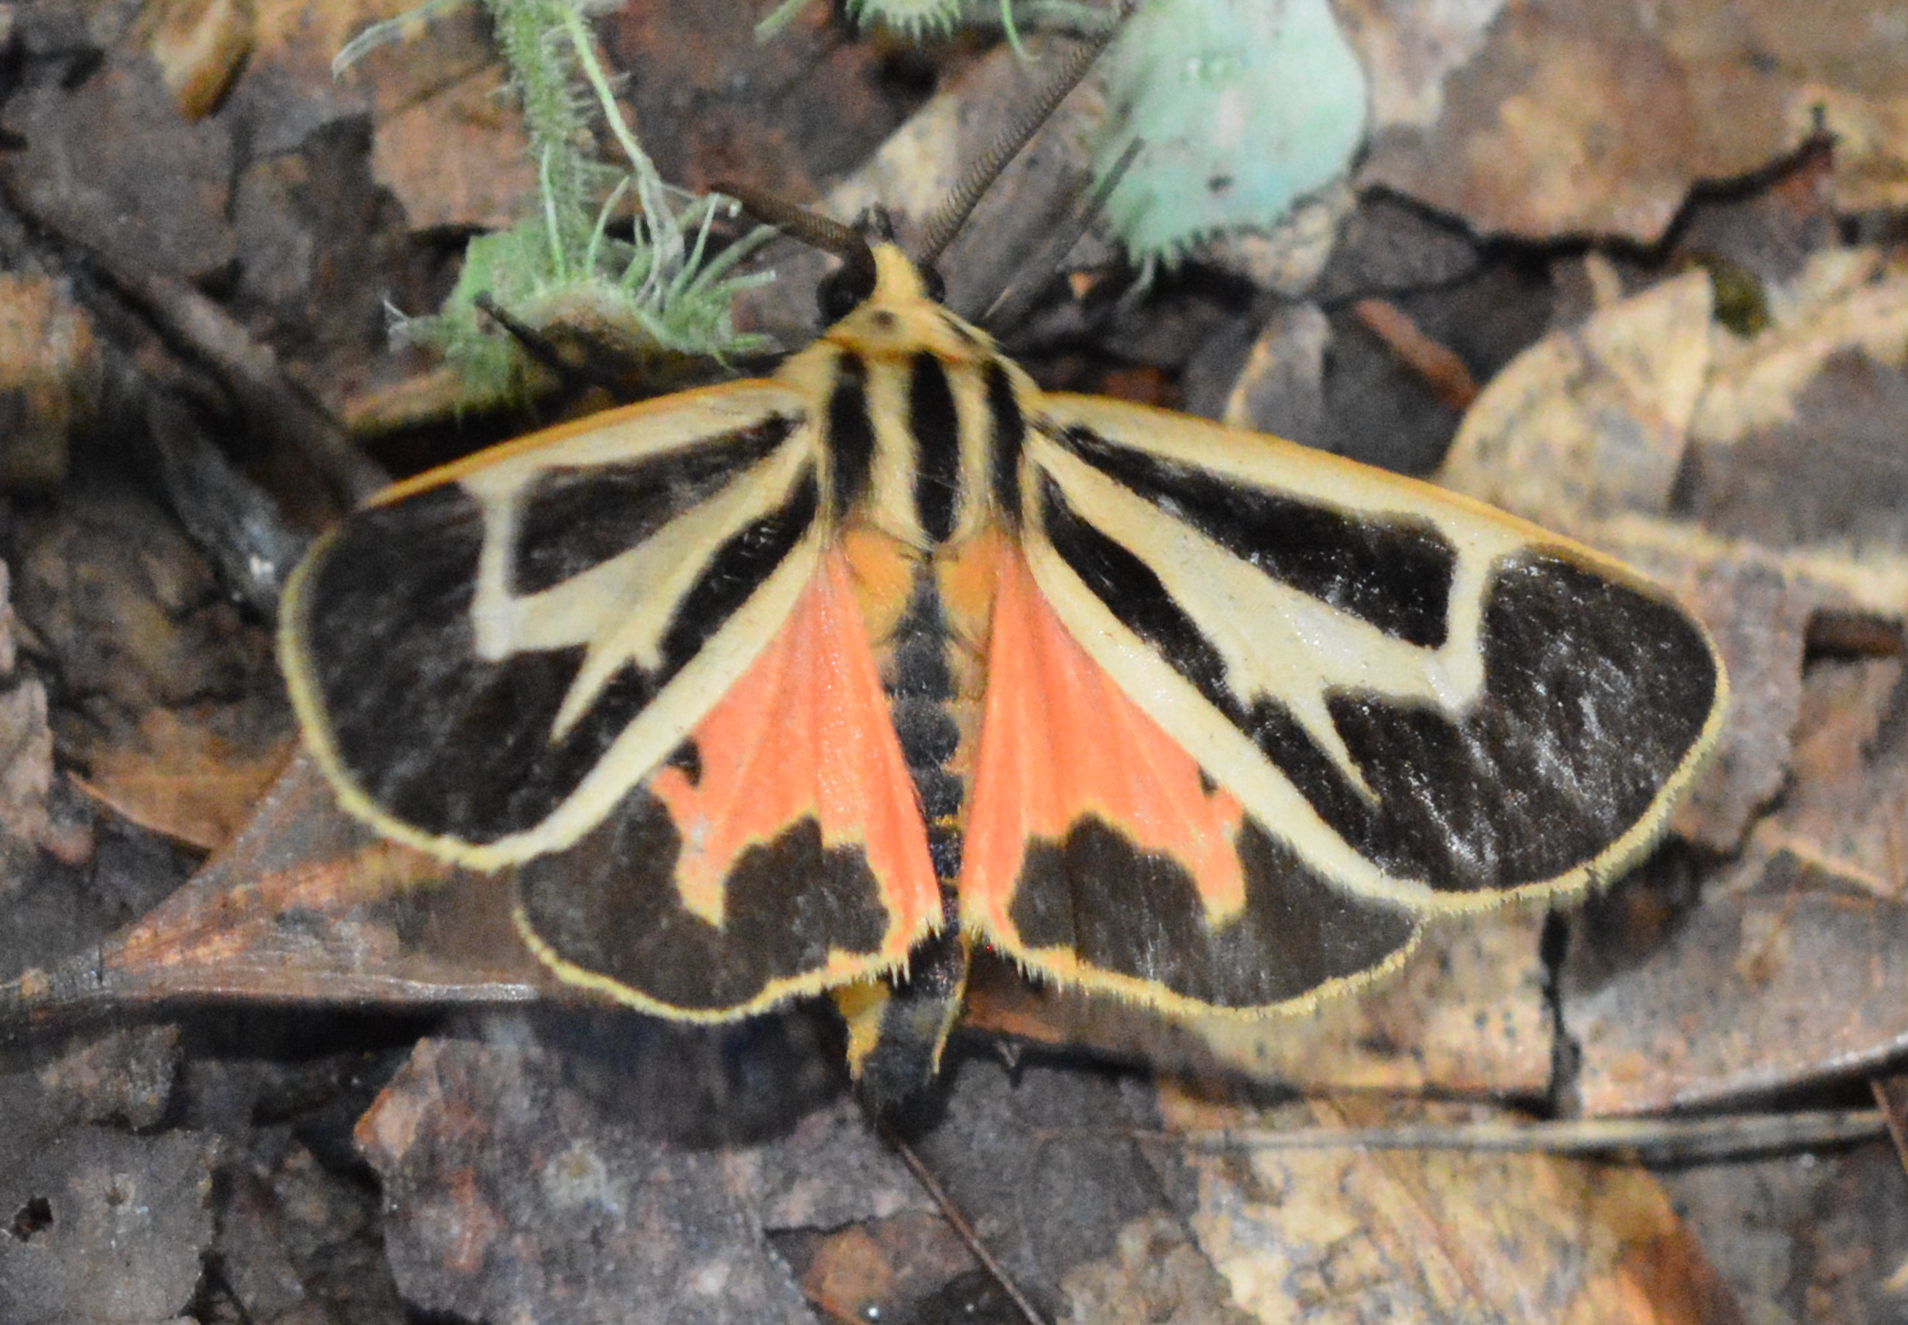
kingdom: Animalia
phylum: Arthropoda
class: Insecta
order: Lepidoptera
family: Erebidae
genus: Apantesis
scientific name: Apantesis vittata
